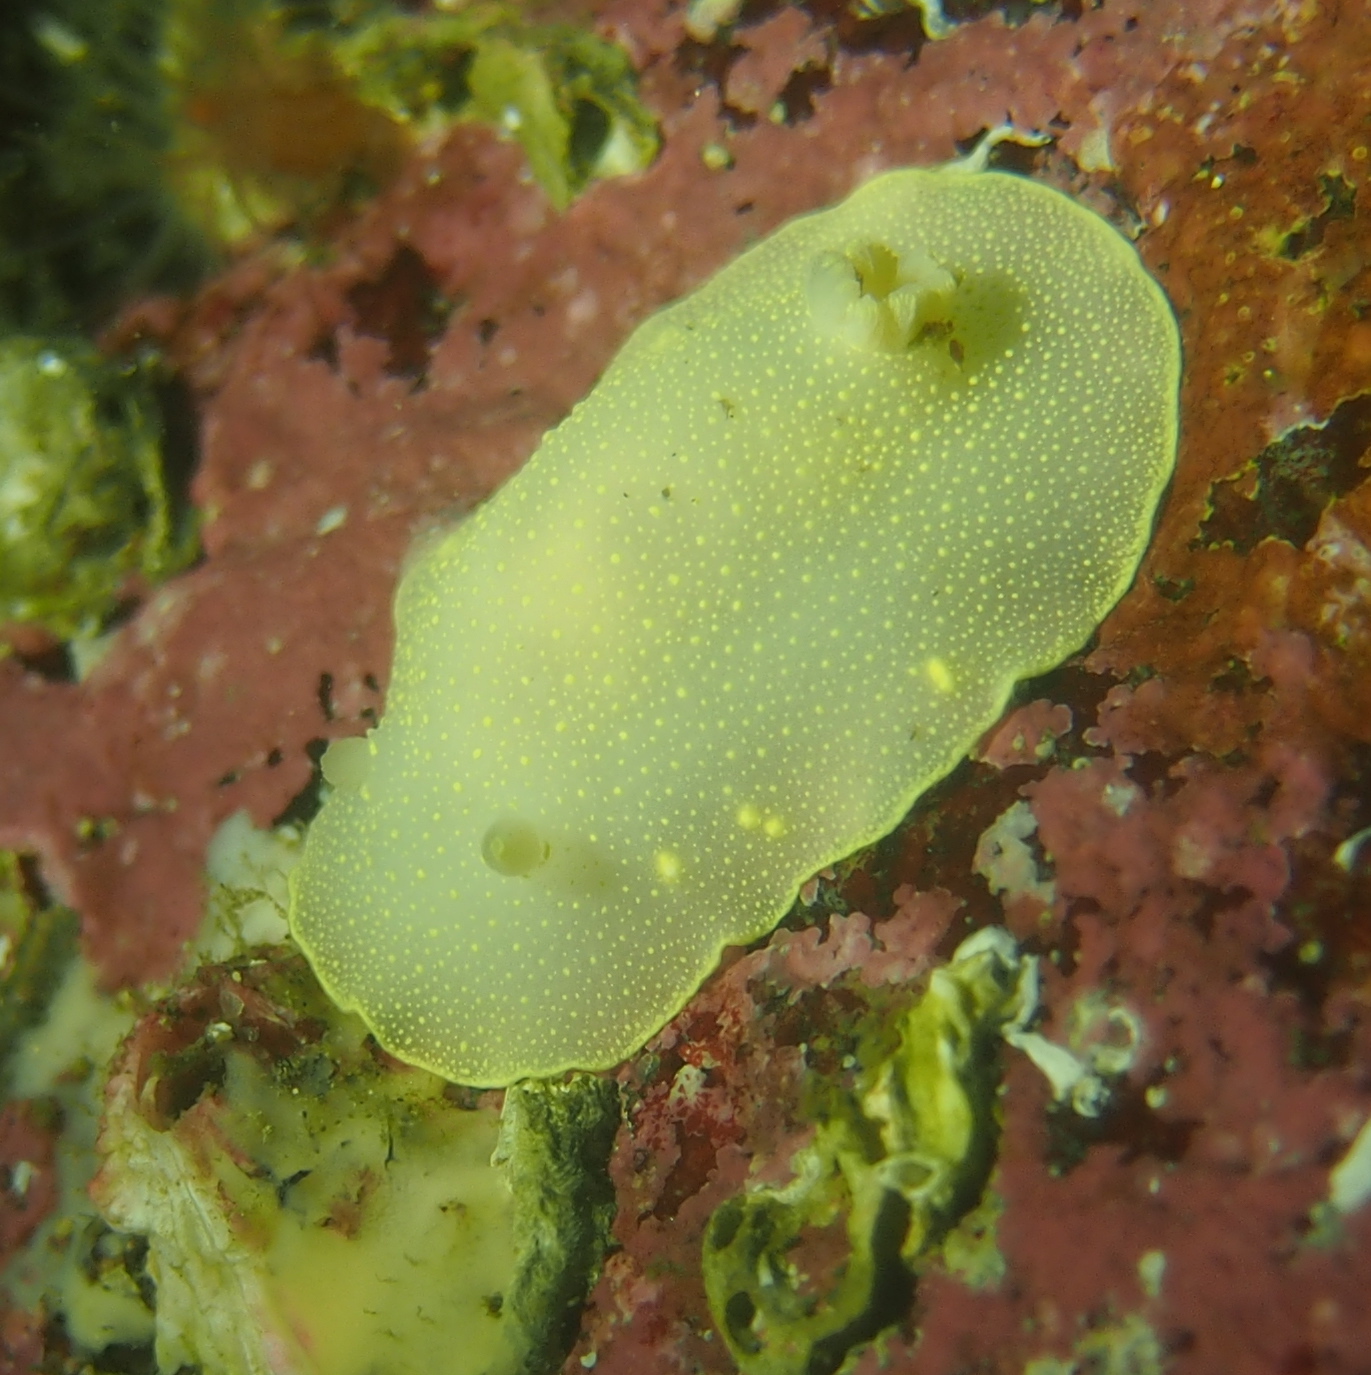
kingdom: Animalia
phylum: Mollusca
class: Gastropoda
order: Nudibranchia
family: Cadlinidae
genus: Cadlina
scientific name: Cadlina laevis
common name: White atlantic cadlina
